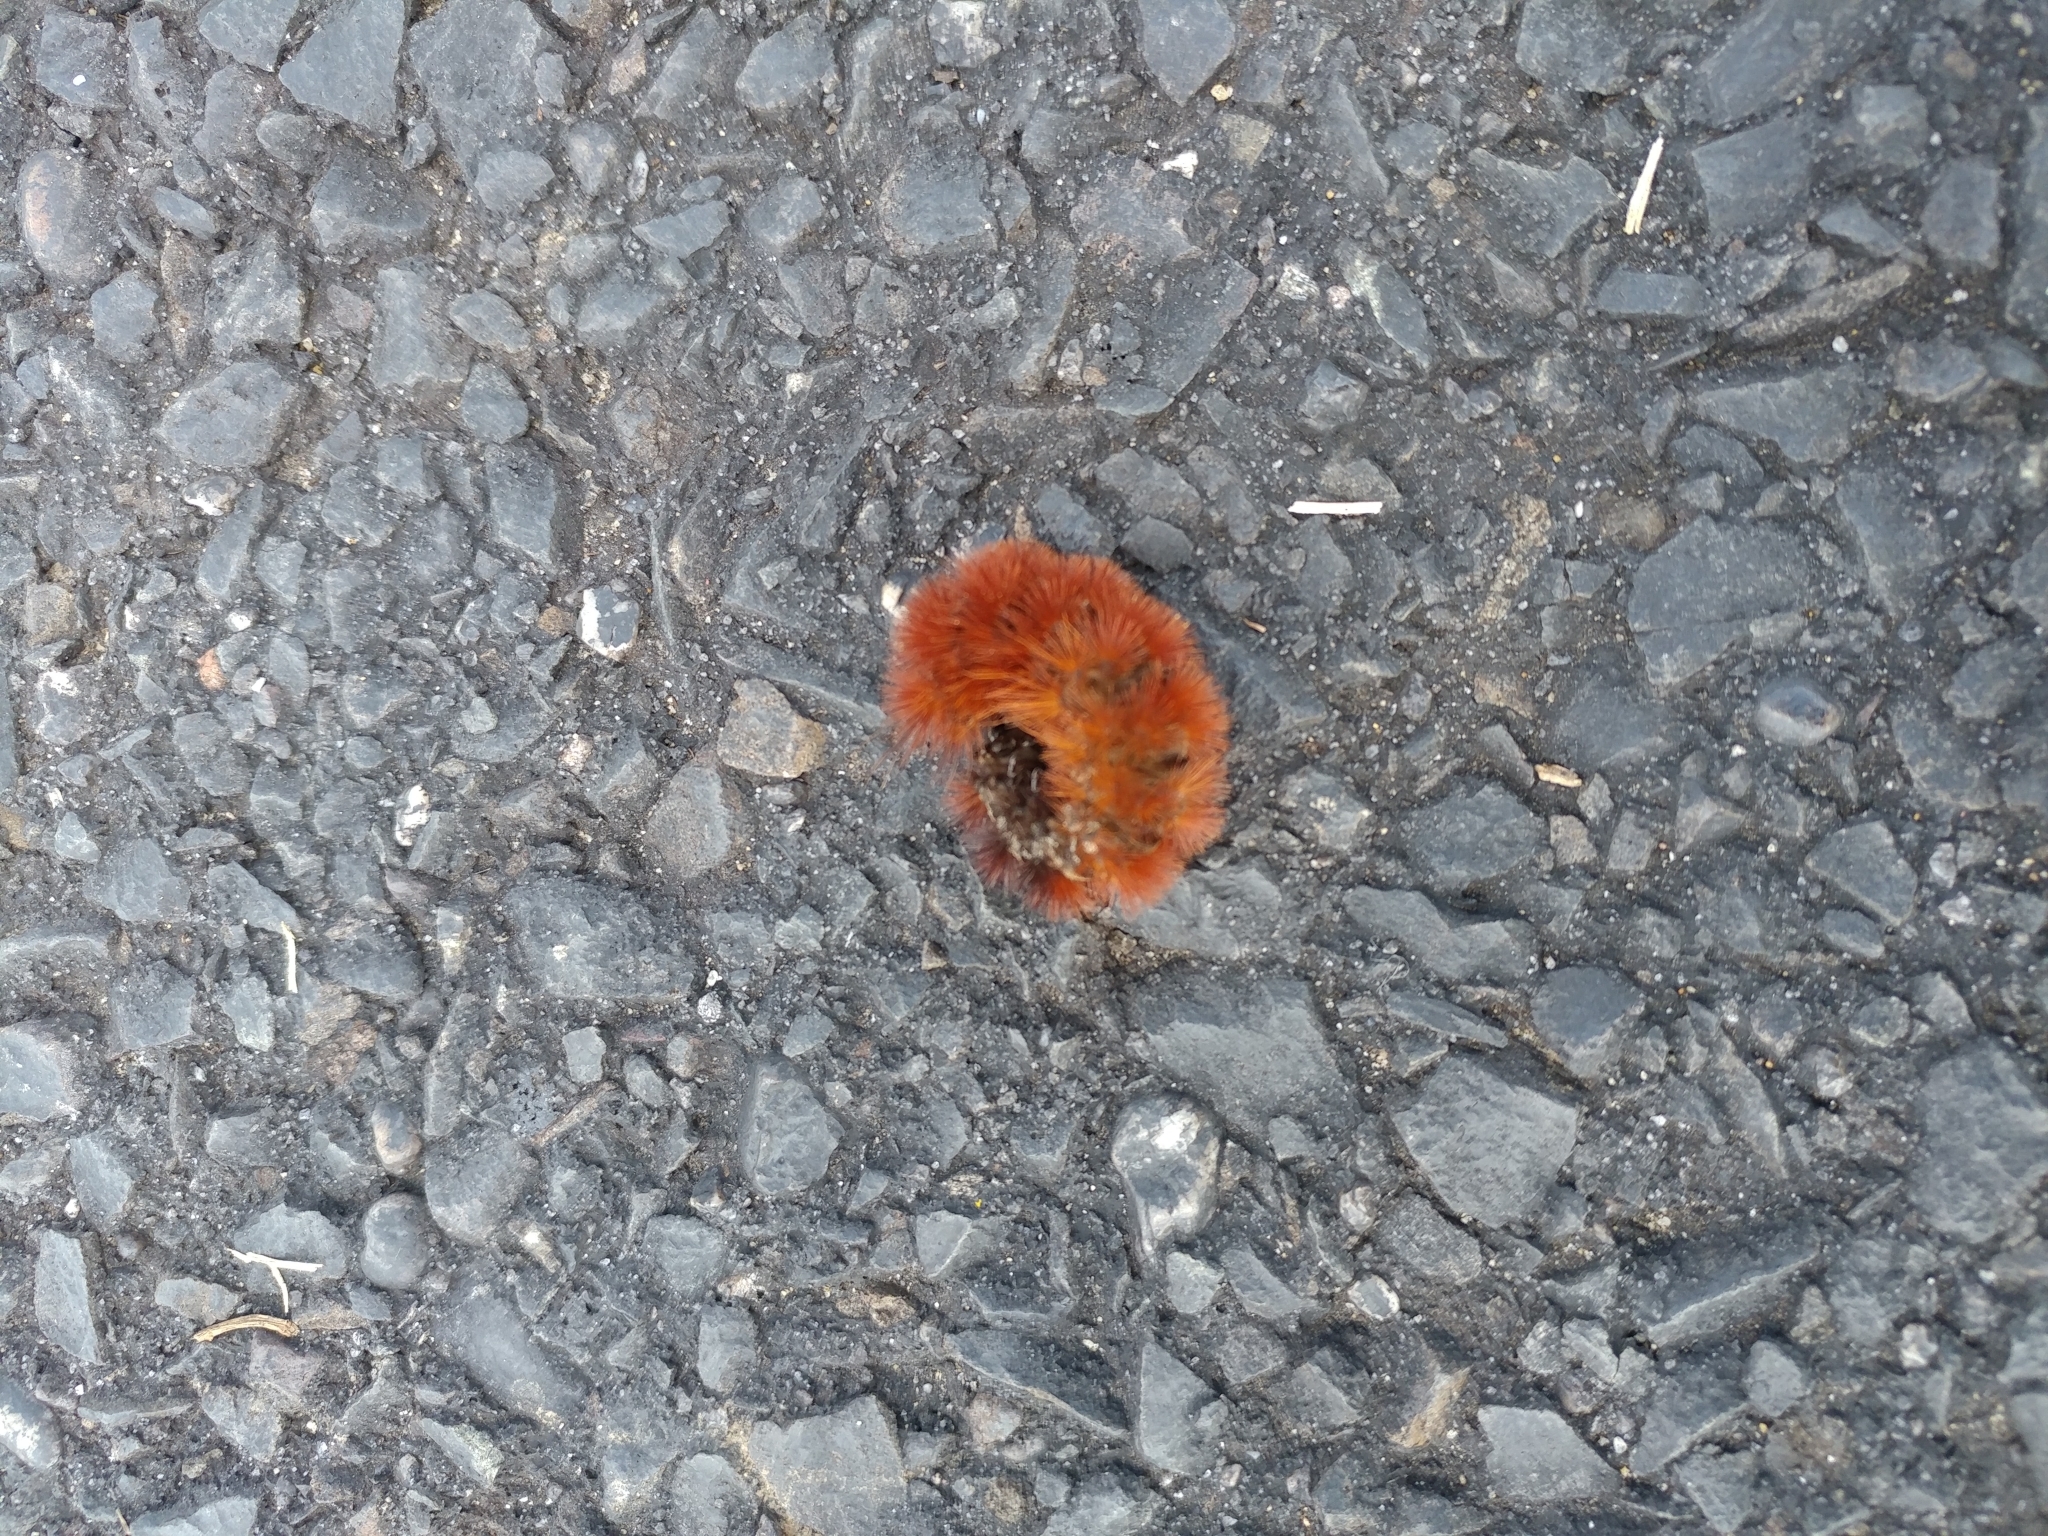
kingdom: Animalia
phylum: Arthropoda
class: Insecta
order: Lepidoptera
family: Erebidae
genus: Pyrrharctia
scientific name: Pyrrharctia isabella
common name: Isabella tiger moth
